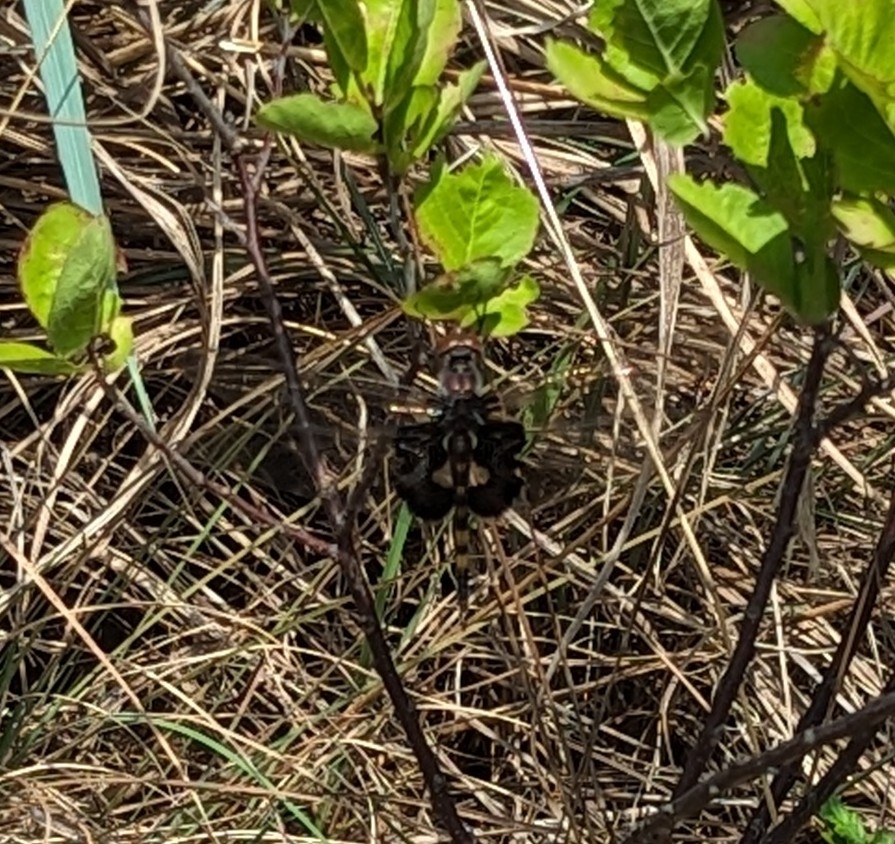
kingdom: Animalia
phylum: Arthropoda
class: Insecta
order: Odonata
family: Libellulidae
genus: Tramea
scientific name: Tramea lacerata
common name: Black saddlebags
